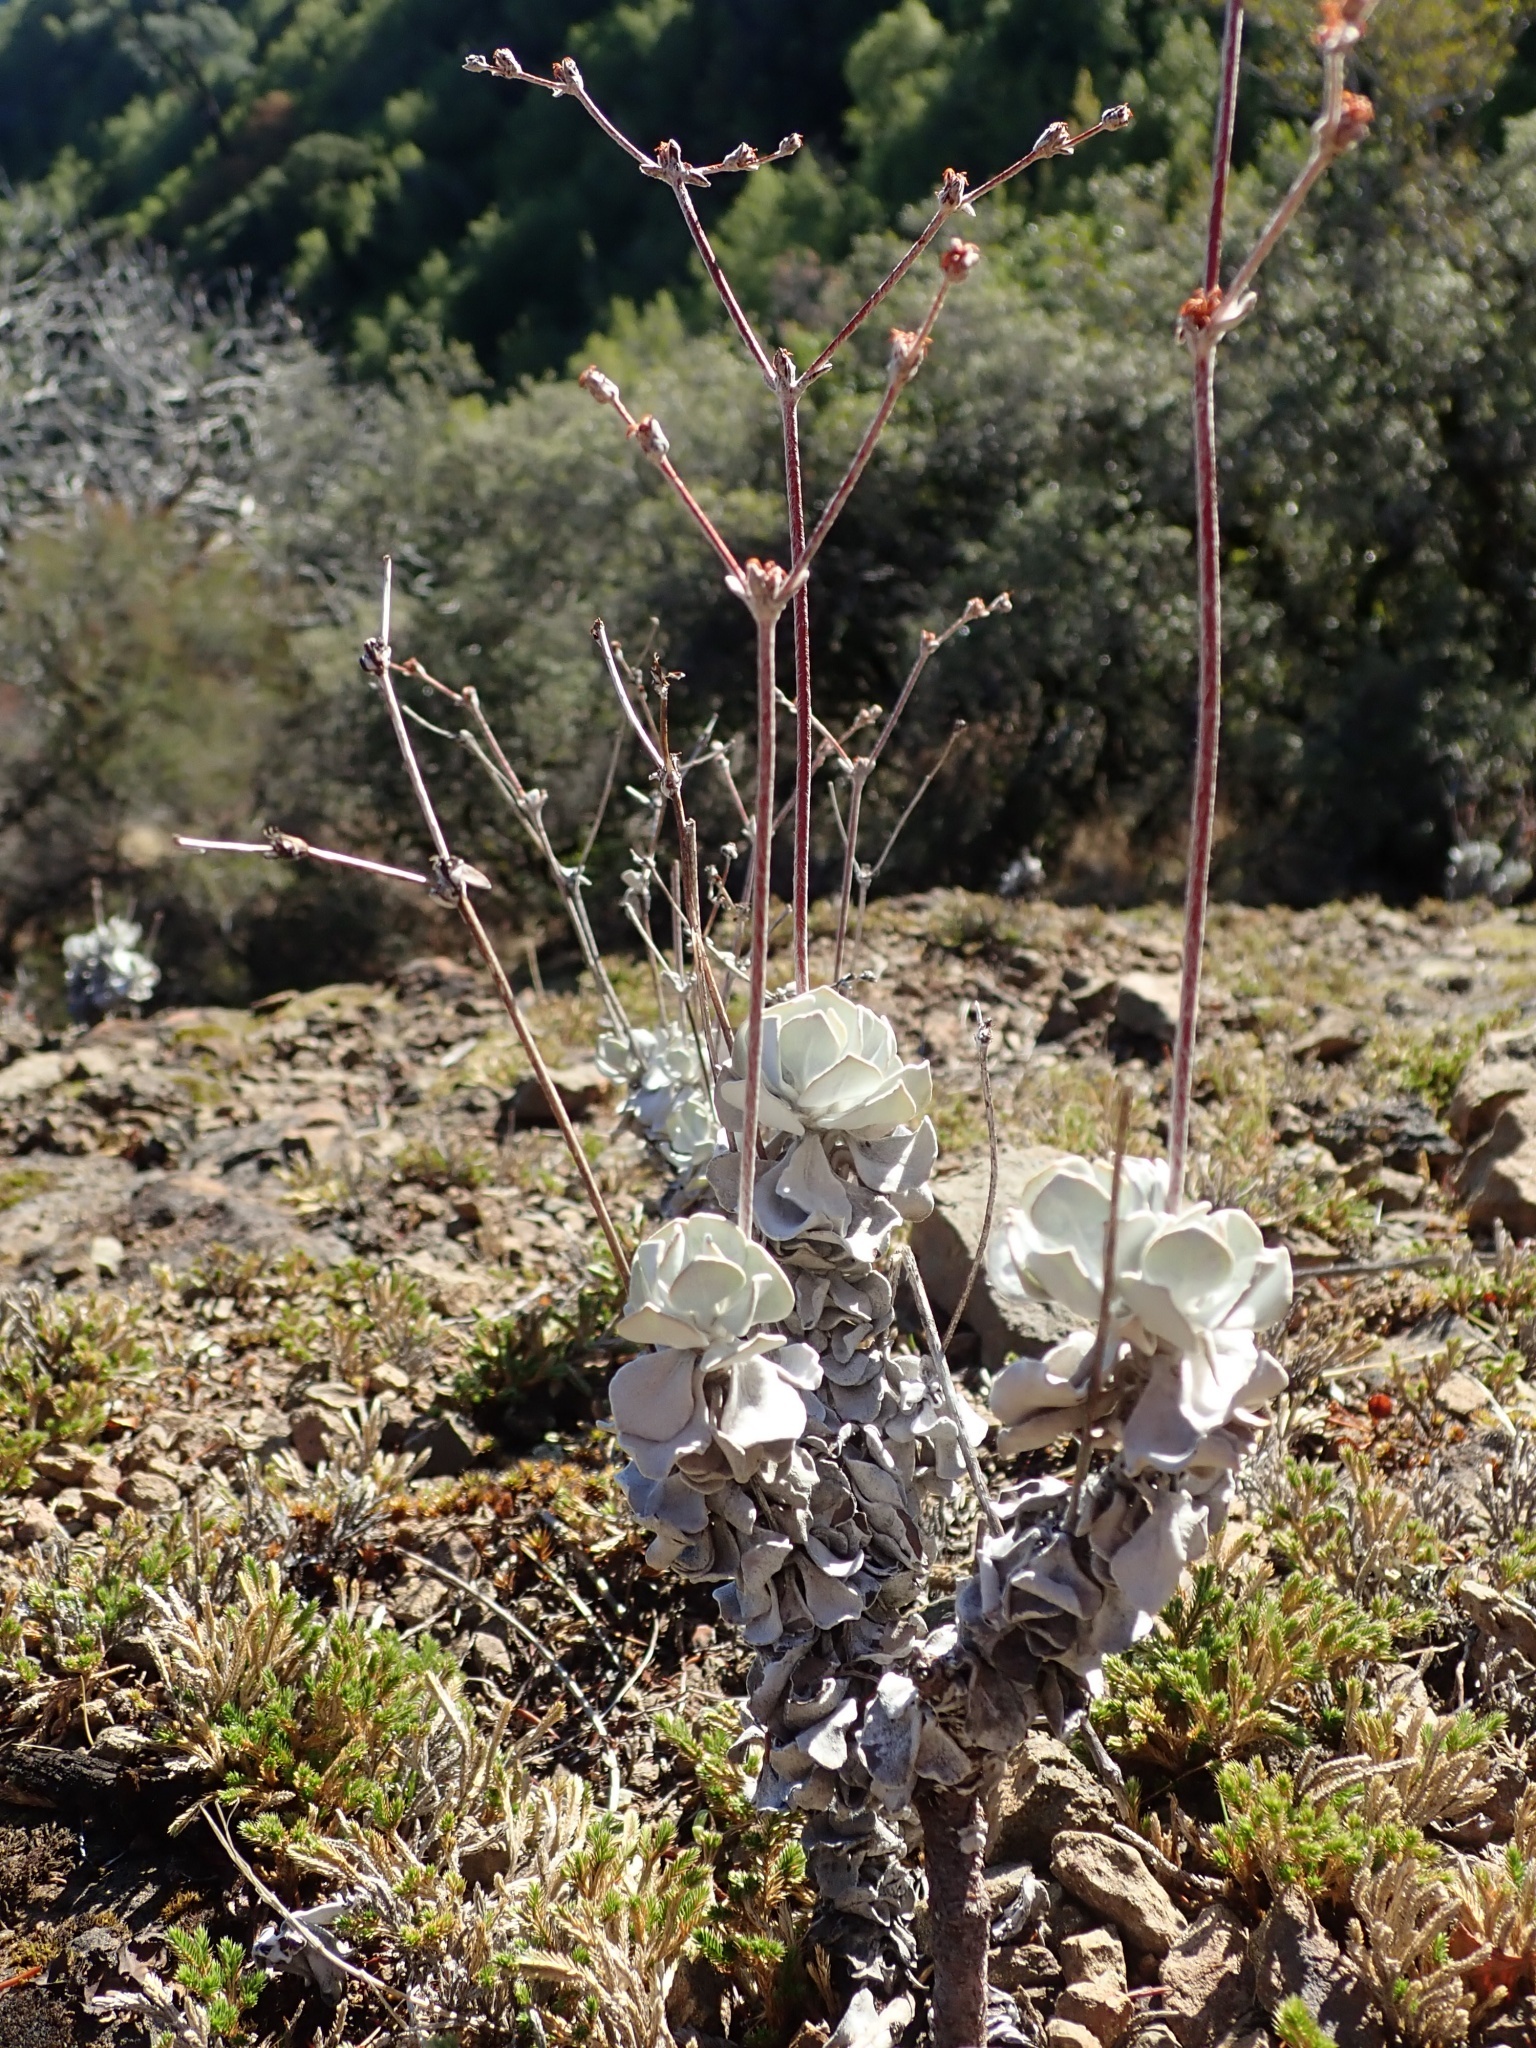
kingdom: Plantae
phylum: Tracheophyta
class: Magnoliopsida
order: Caryophyllales
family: Polygonaceae
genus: Eriogonum
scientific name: Eriogonum saxatile
